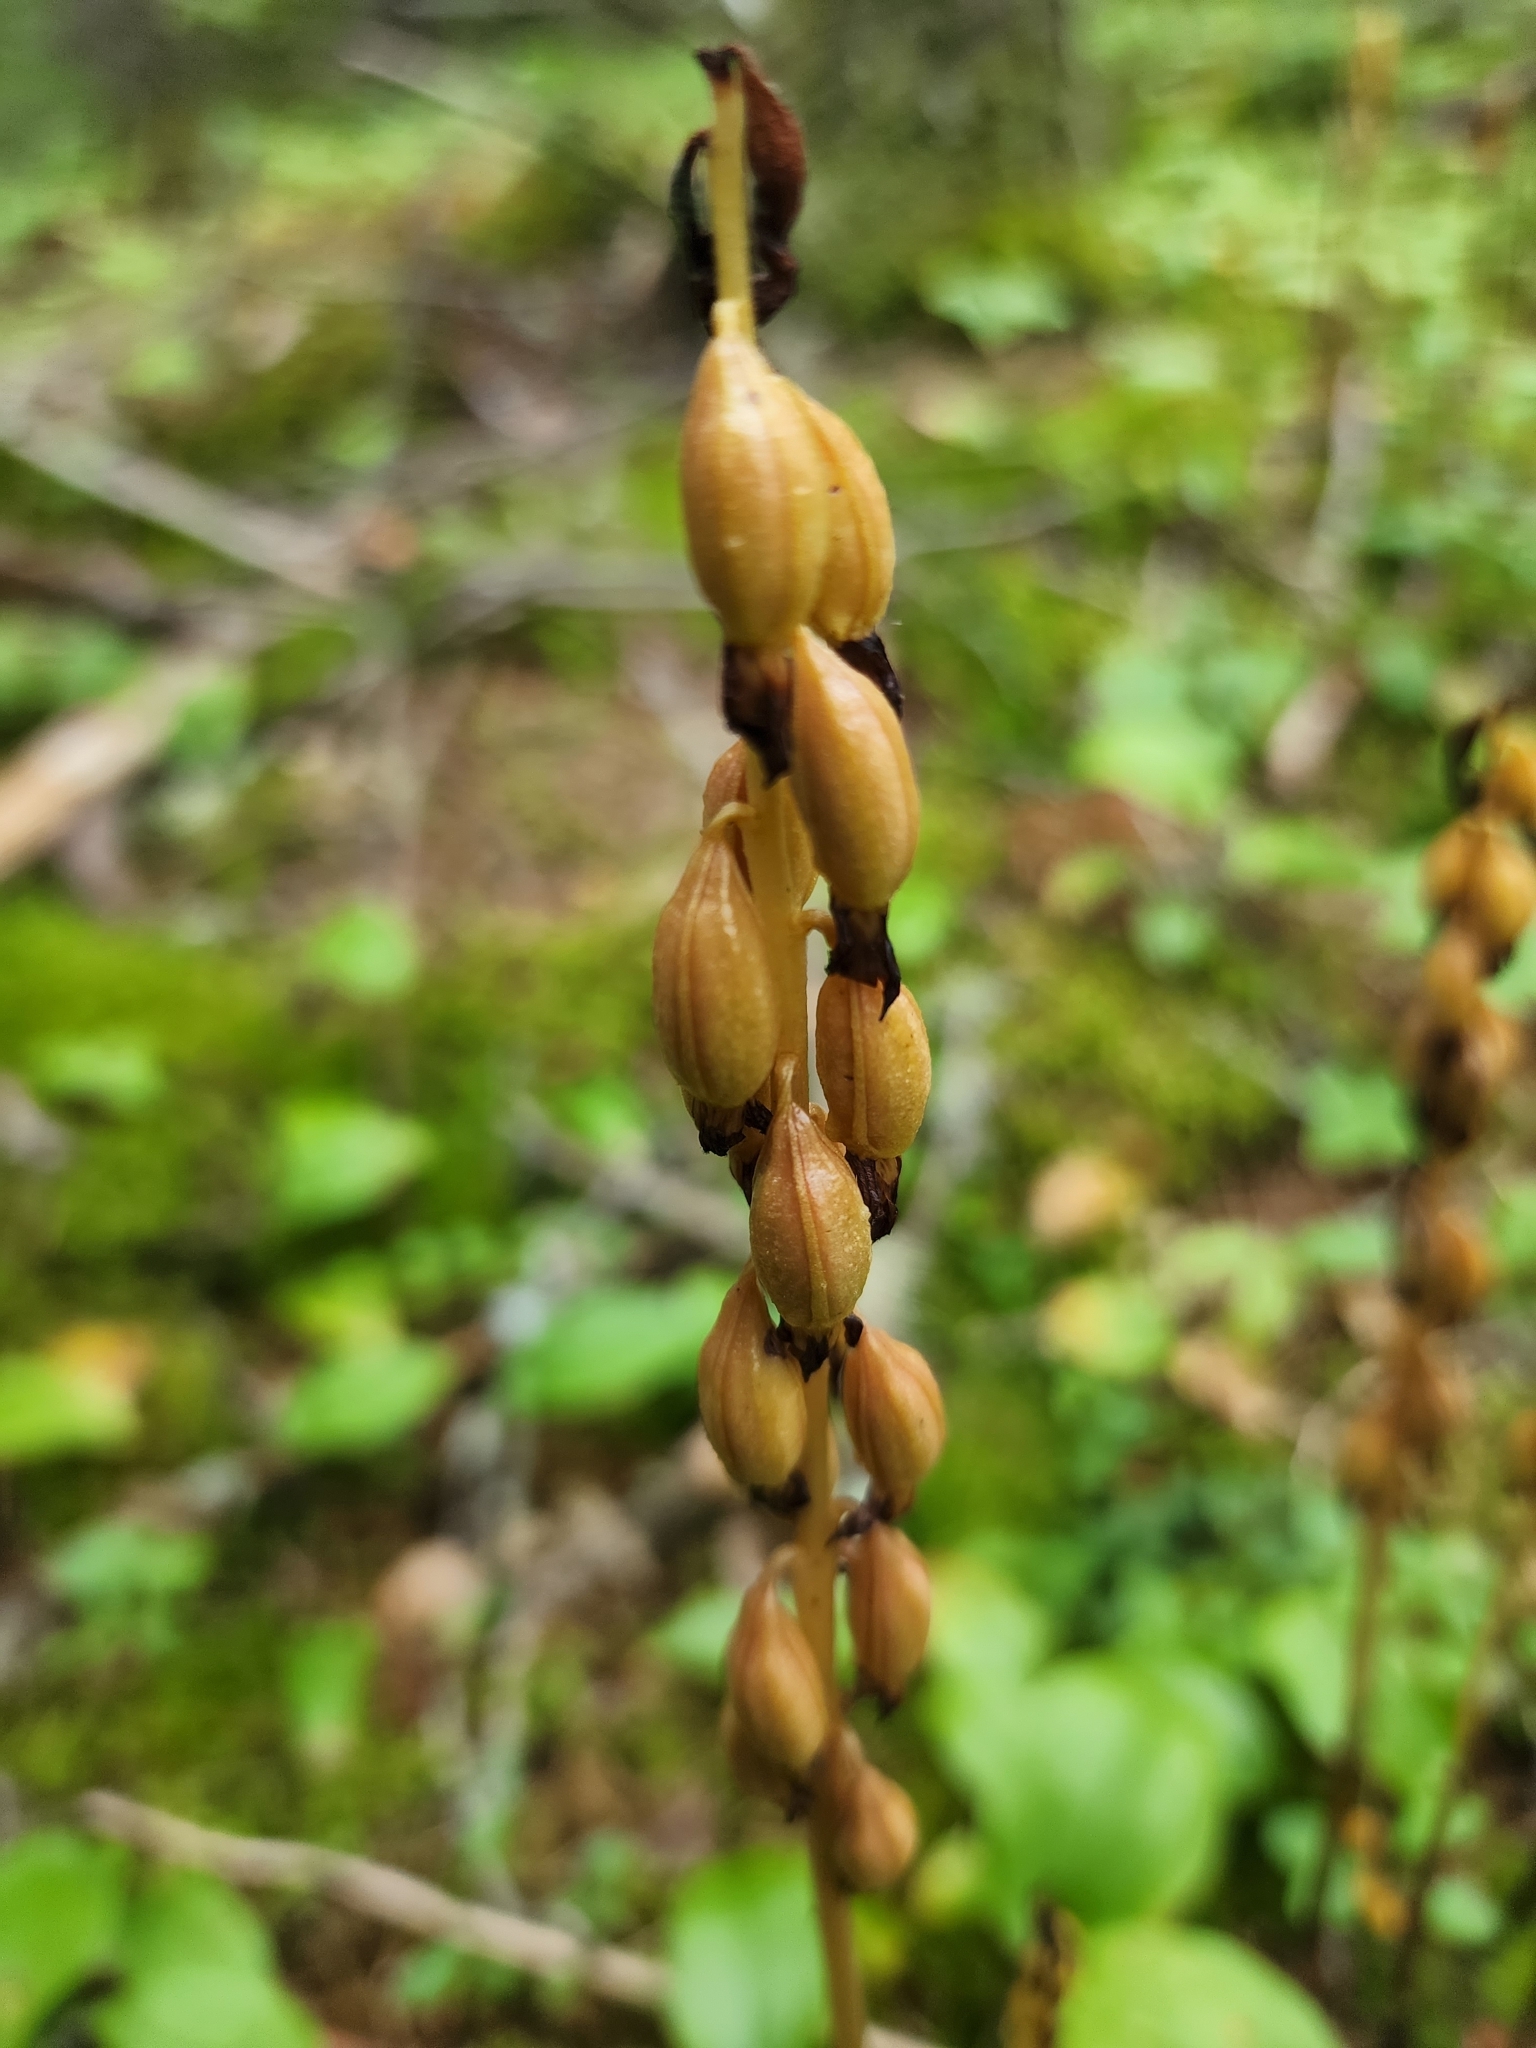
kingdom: Plantae
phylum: Tracheophyta
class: Liliopsida
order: Asparagales
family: Orchidaceae
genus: Corallorhiza
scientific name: Corallorhiza maculata
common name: Spotted coralroot
